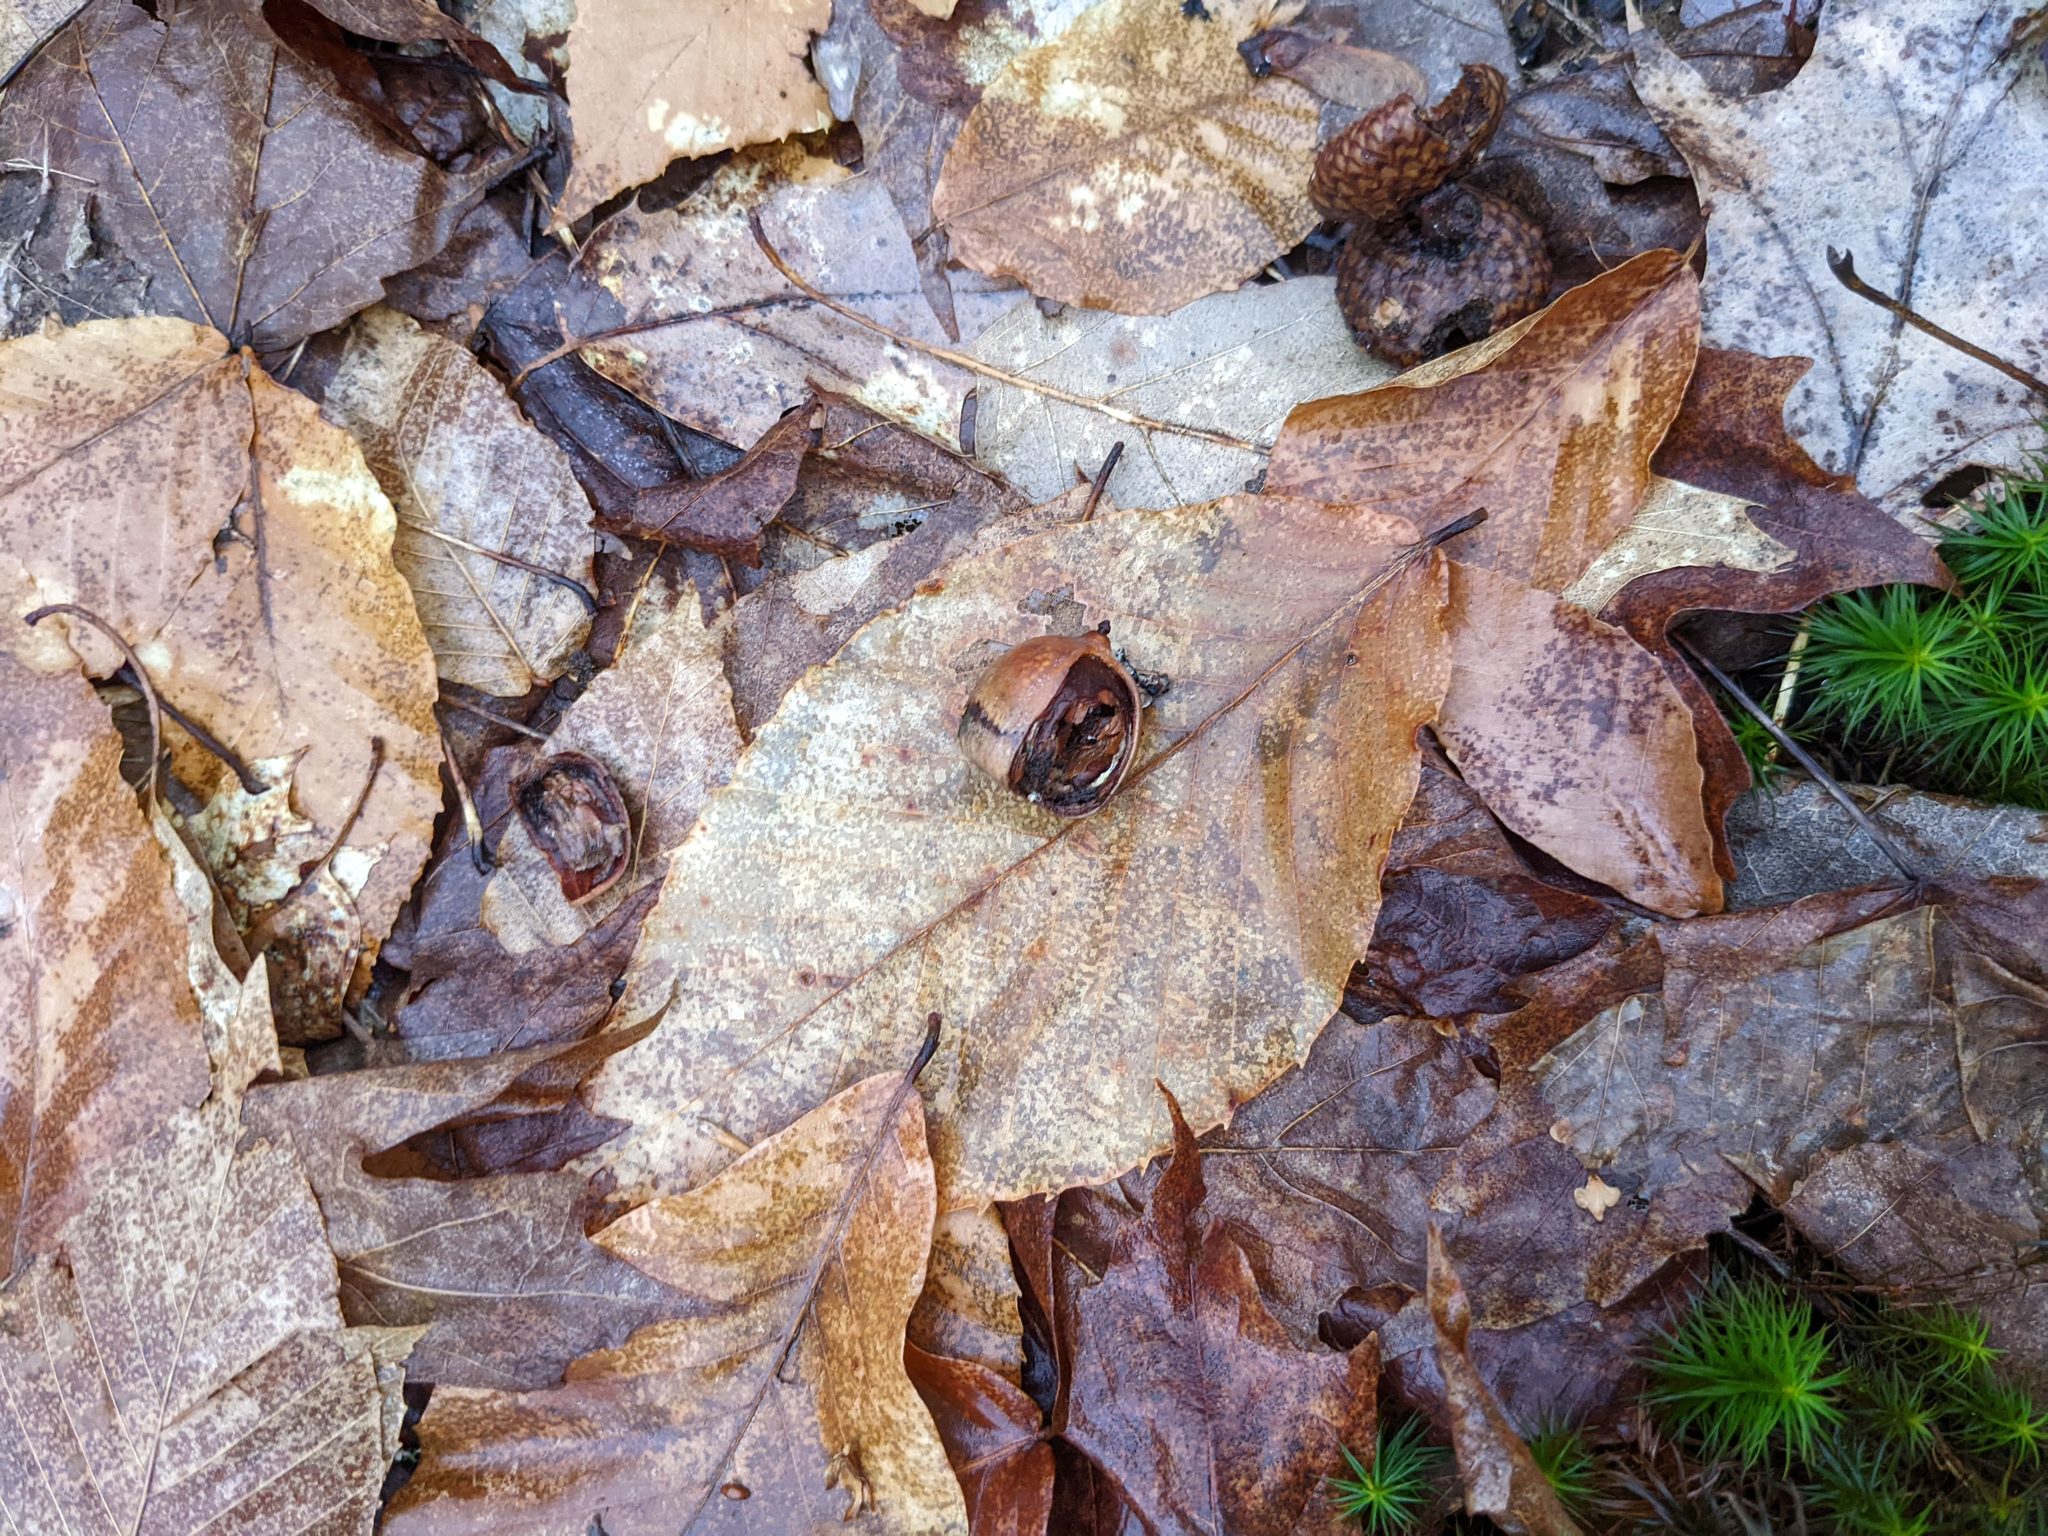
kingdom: Plantae
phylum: Tracheophyta
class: Magnoliopsida
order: Fagales
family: Fagaceae
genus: Fagus
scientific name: Fagus grandifolia
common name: American beech
